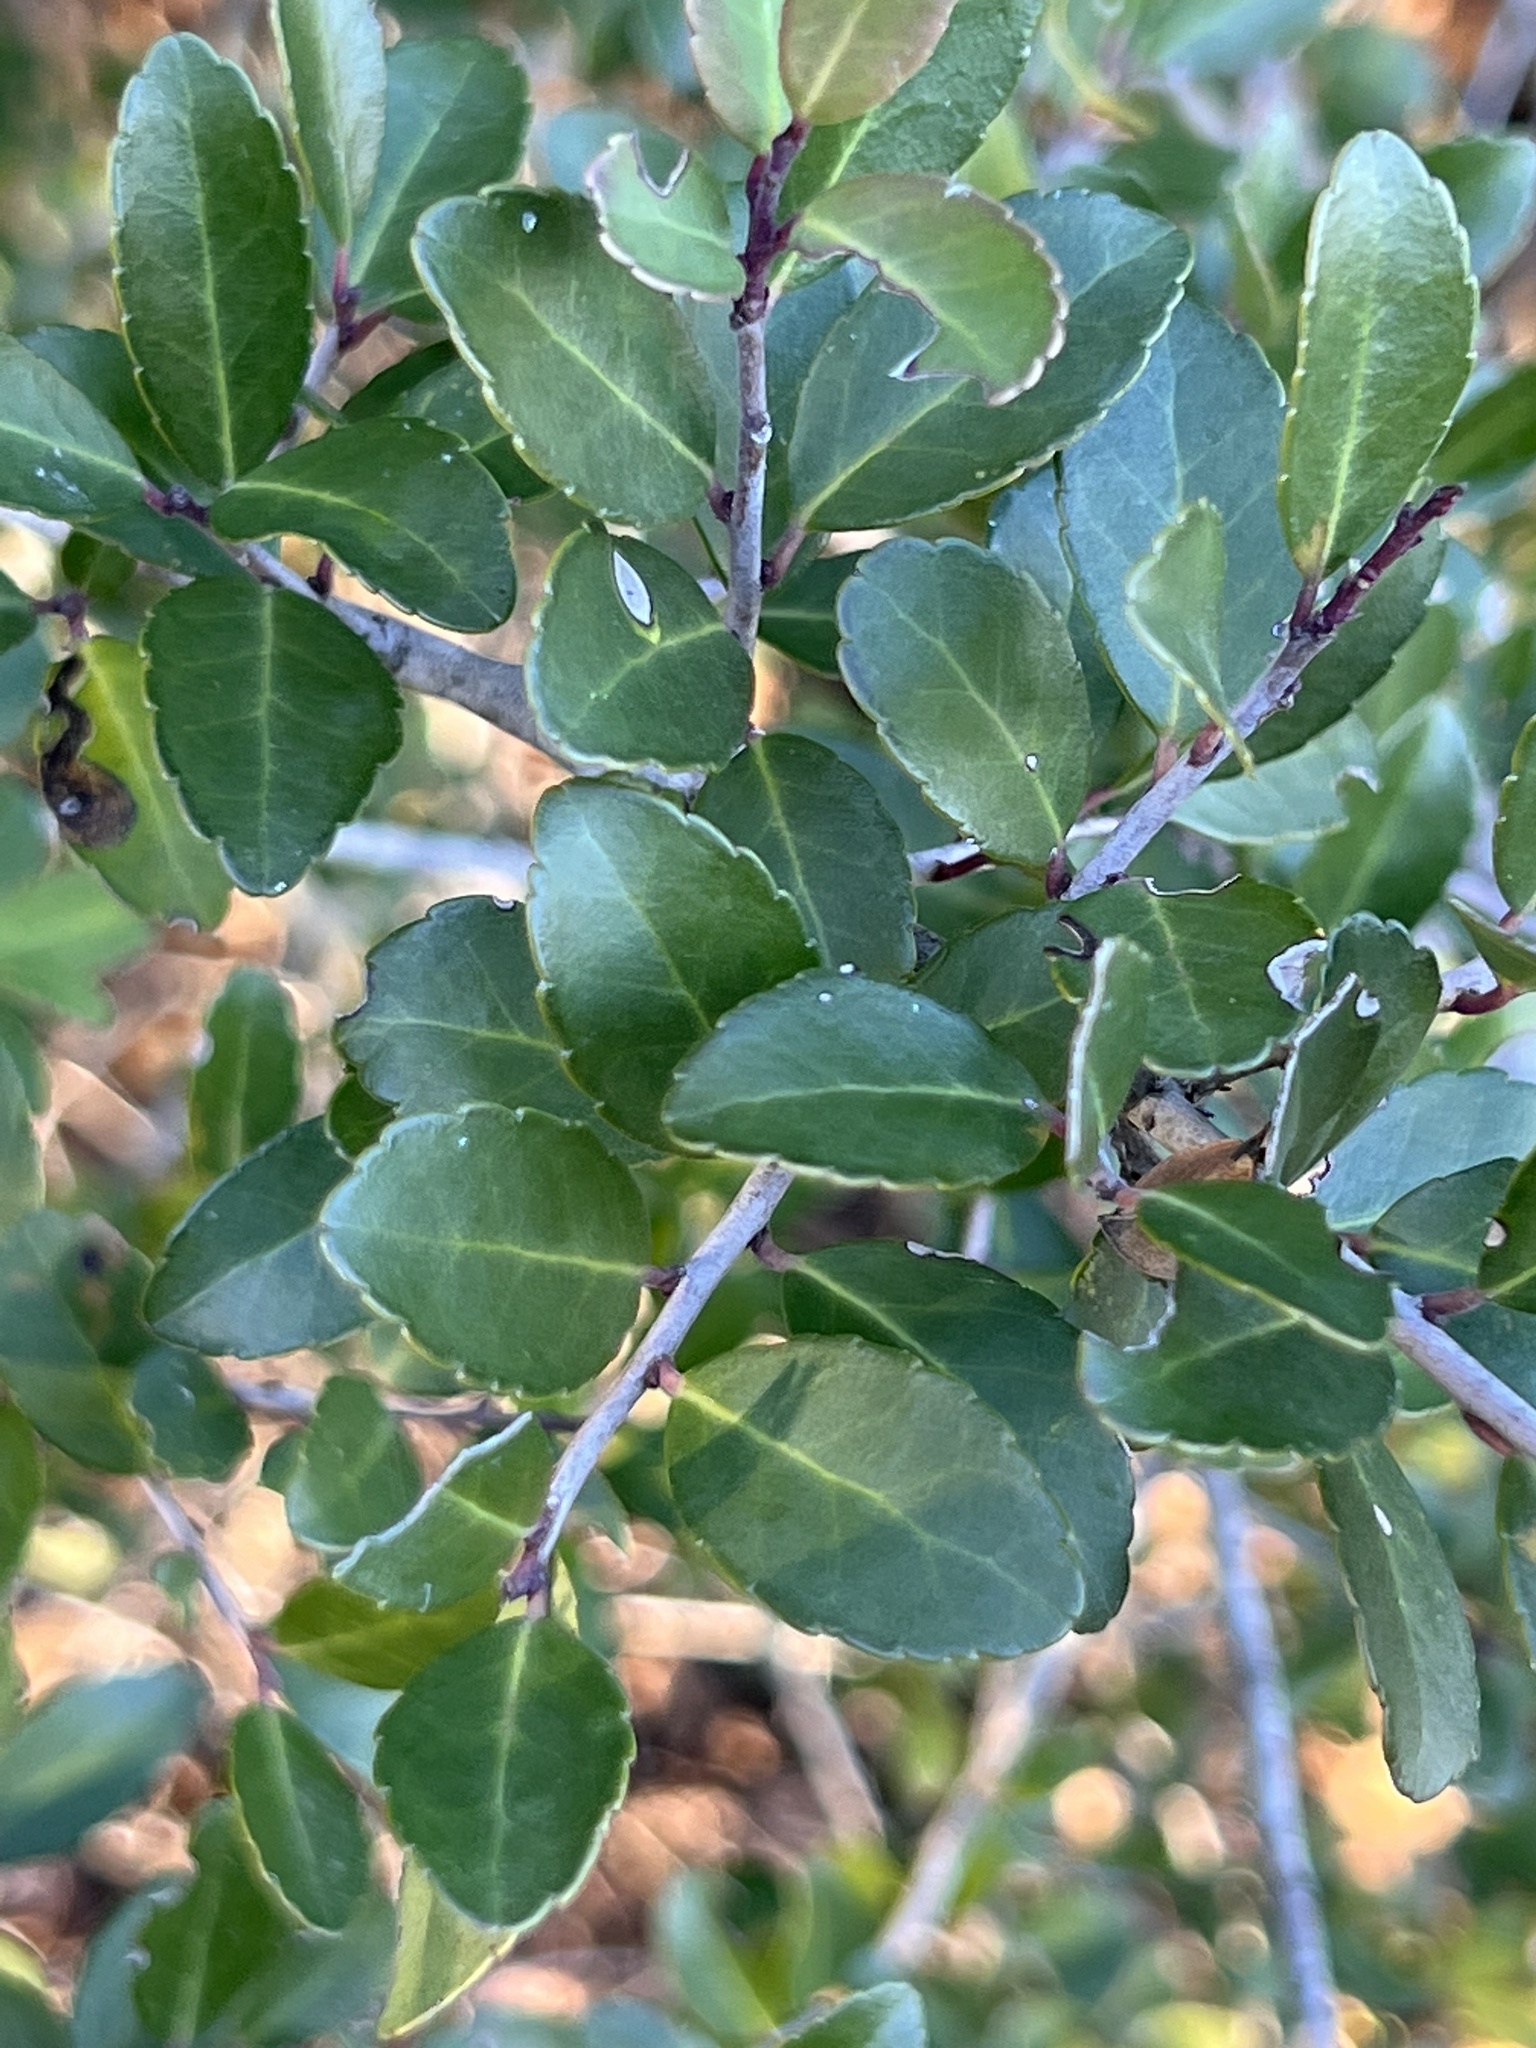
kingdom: Plantae
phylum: Tracheophyta
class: Magnoliopsida
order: Aquifoliales
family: Aquifoliaceae
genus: Ilex
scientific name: Ilex vomitoria
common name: Yaupon holly
